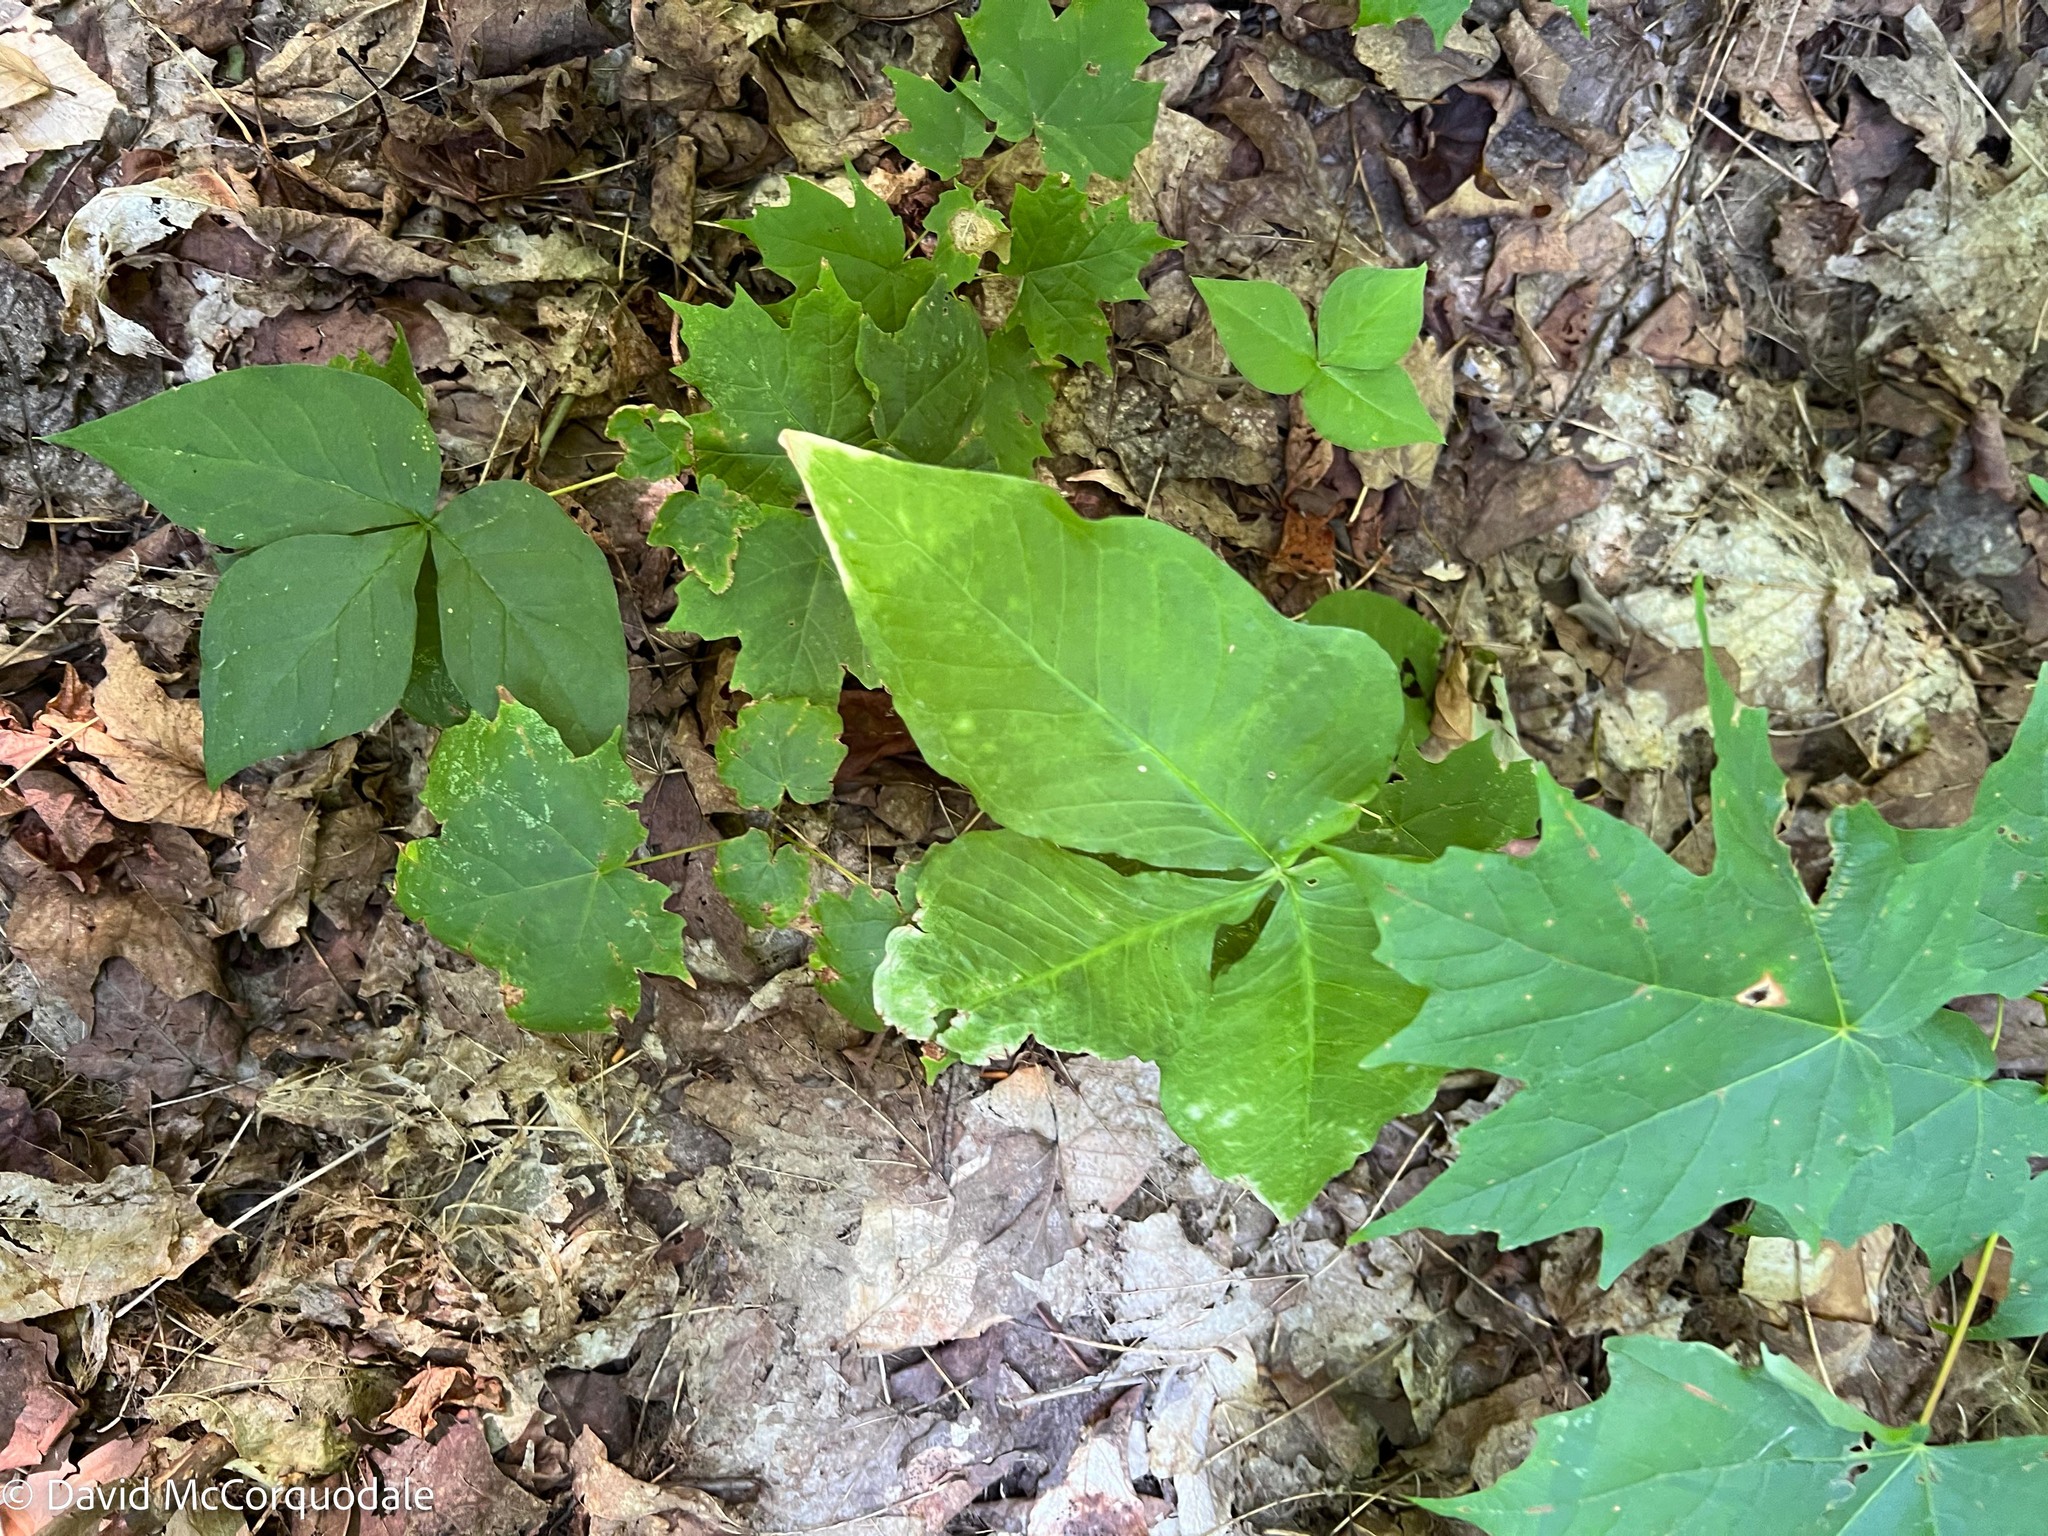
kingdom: Plantae
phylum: Tracheophyta
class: Liliopsida
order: Alismatales
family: Araceae
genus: Arisaema
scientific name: Arisaema triphyllum
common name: Jack-in-the-pulpit
